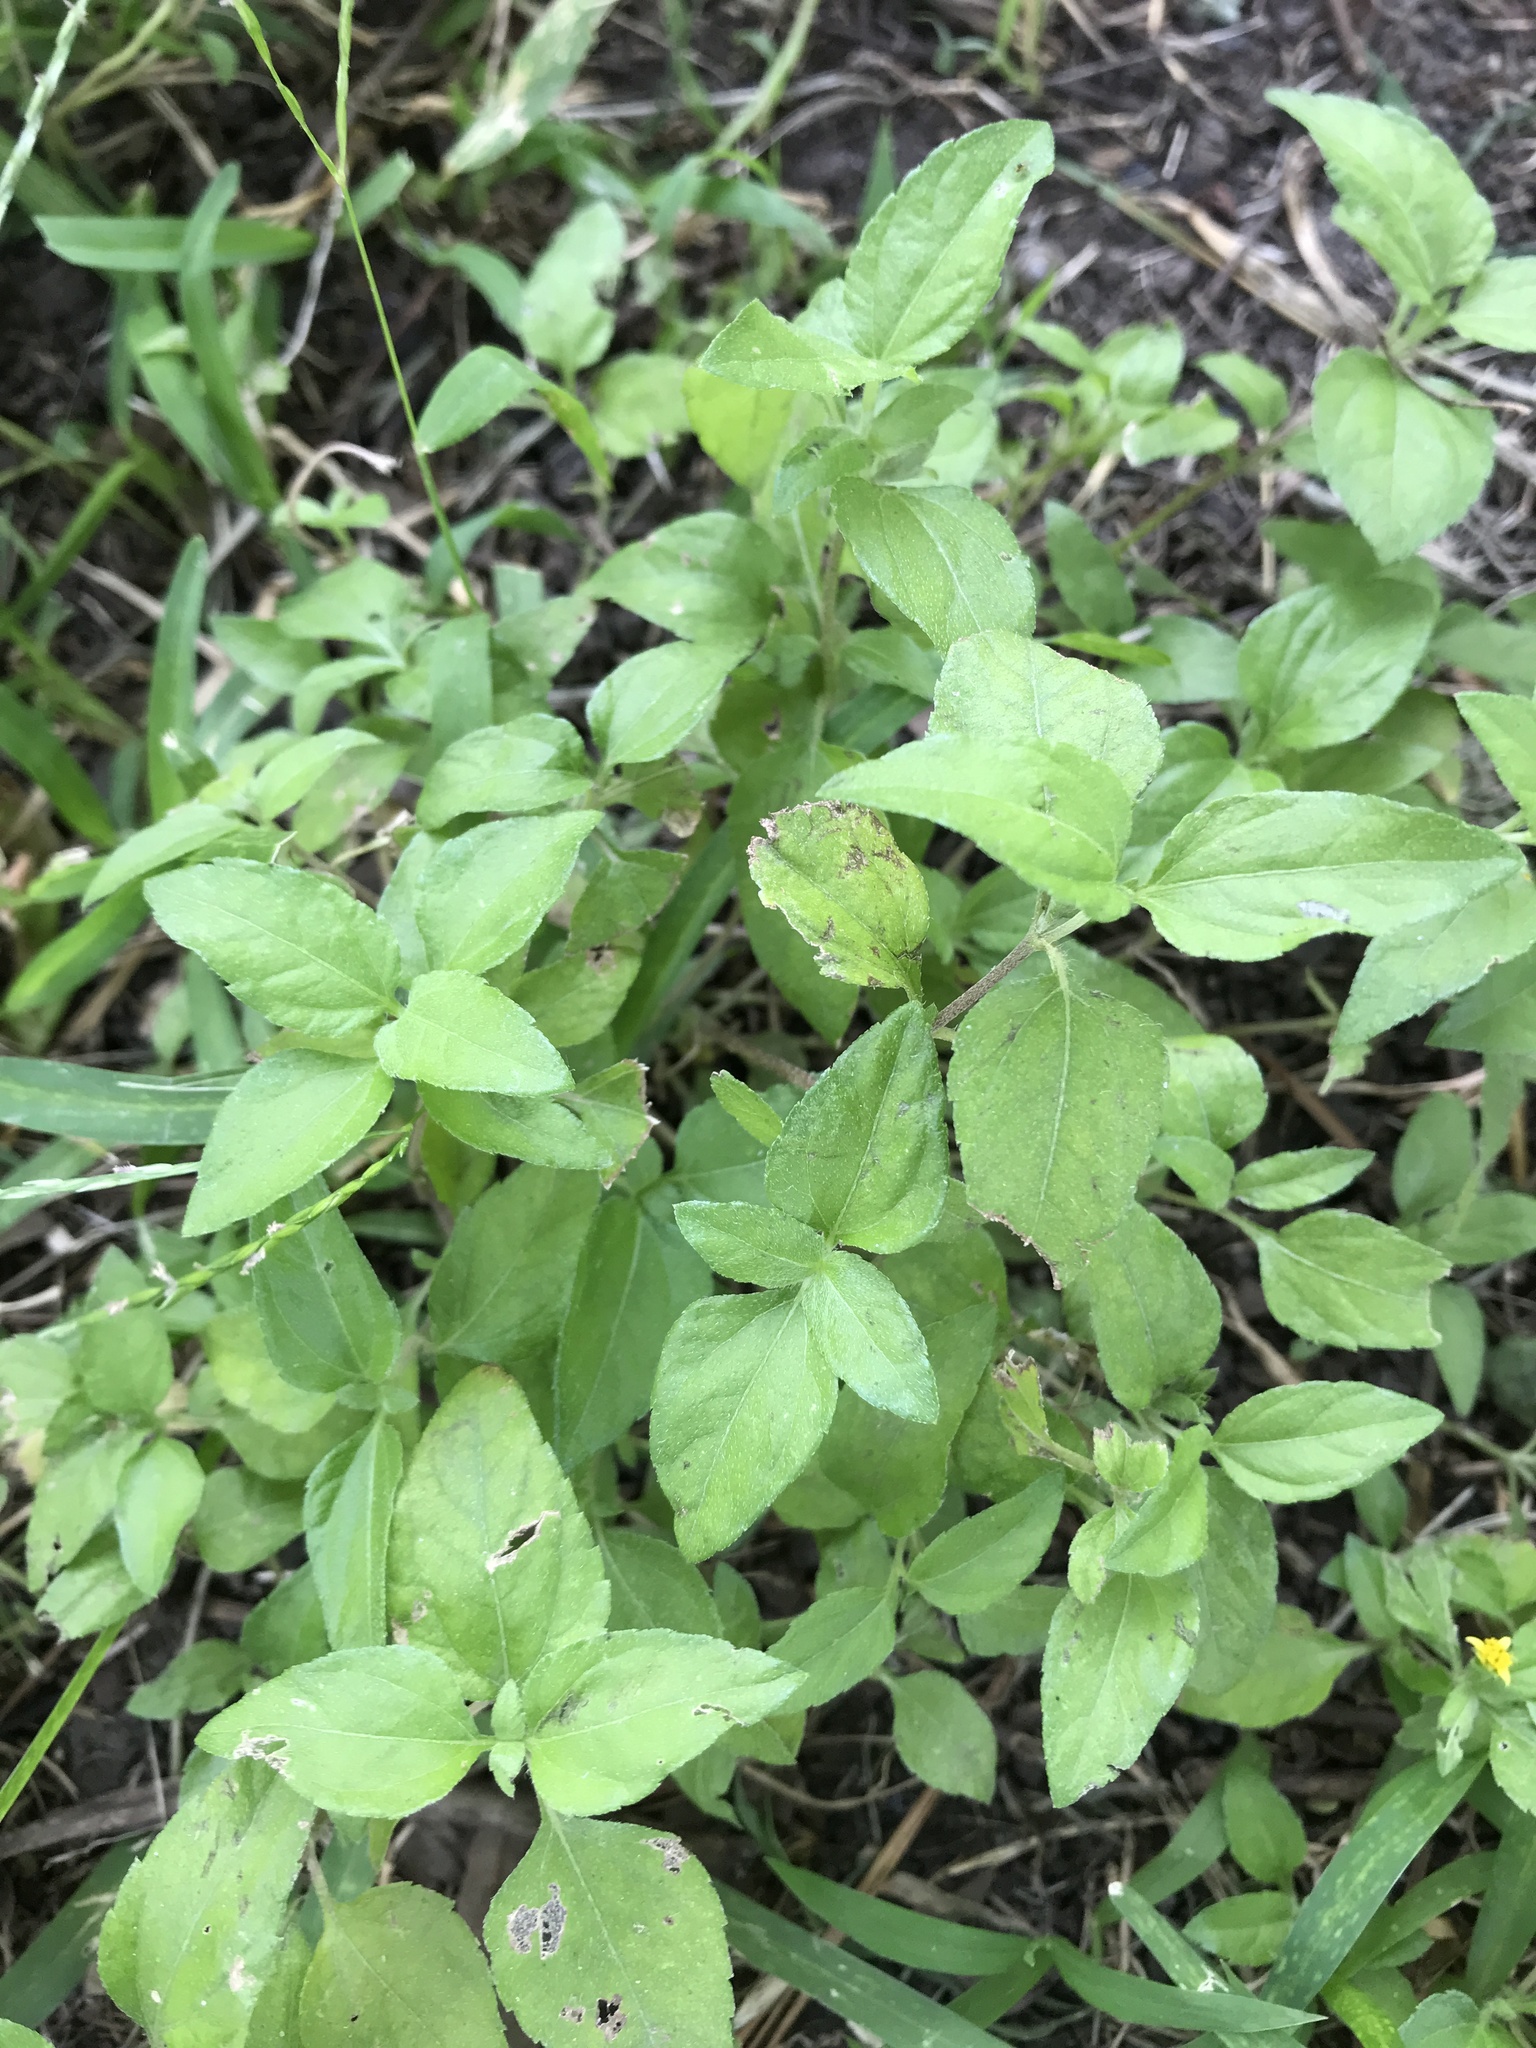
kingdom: Plantae
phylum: Tracheophyta
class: Magnoliopsida
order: Asterales
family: Asteraceae
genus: Calyptocarpus
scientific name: Calyptocarpus vialis
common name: Straggler daisy
